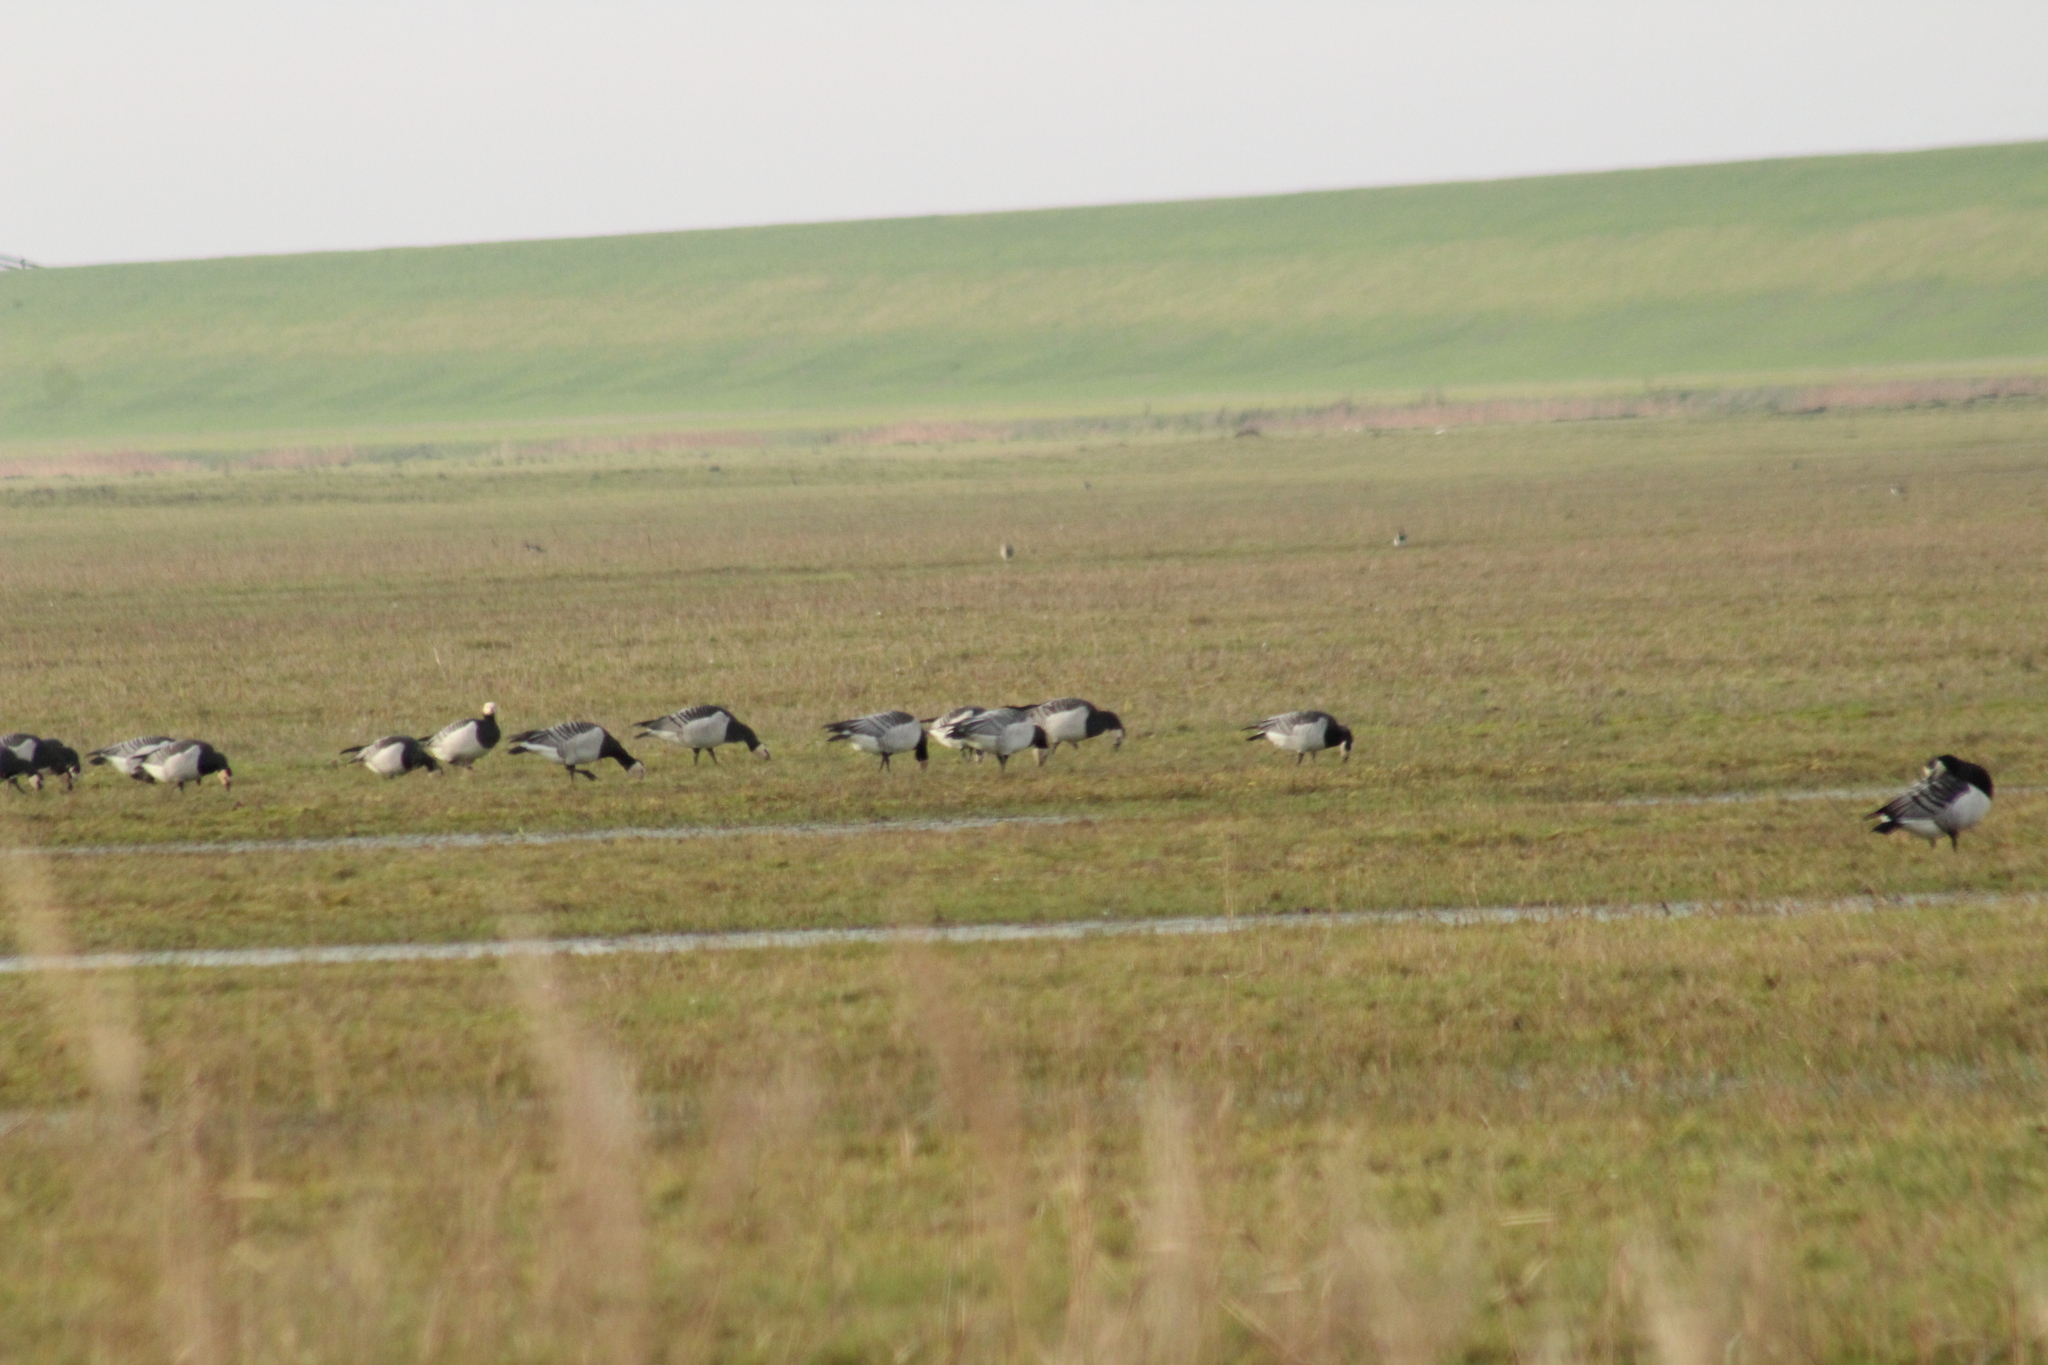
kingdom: Animalia
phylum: Chordata
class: Aves
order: Anseriformes
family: Anatidae
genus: Branta
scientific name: Branta leucopsis
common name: Barnacle goose
